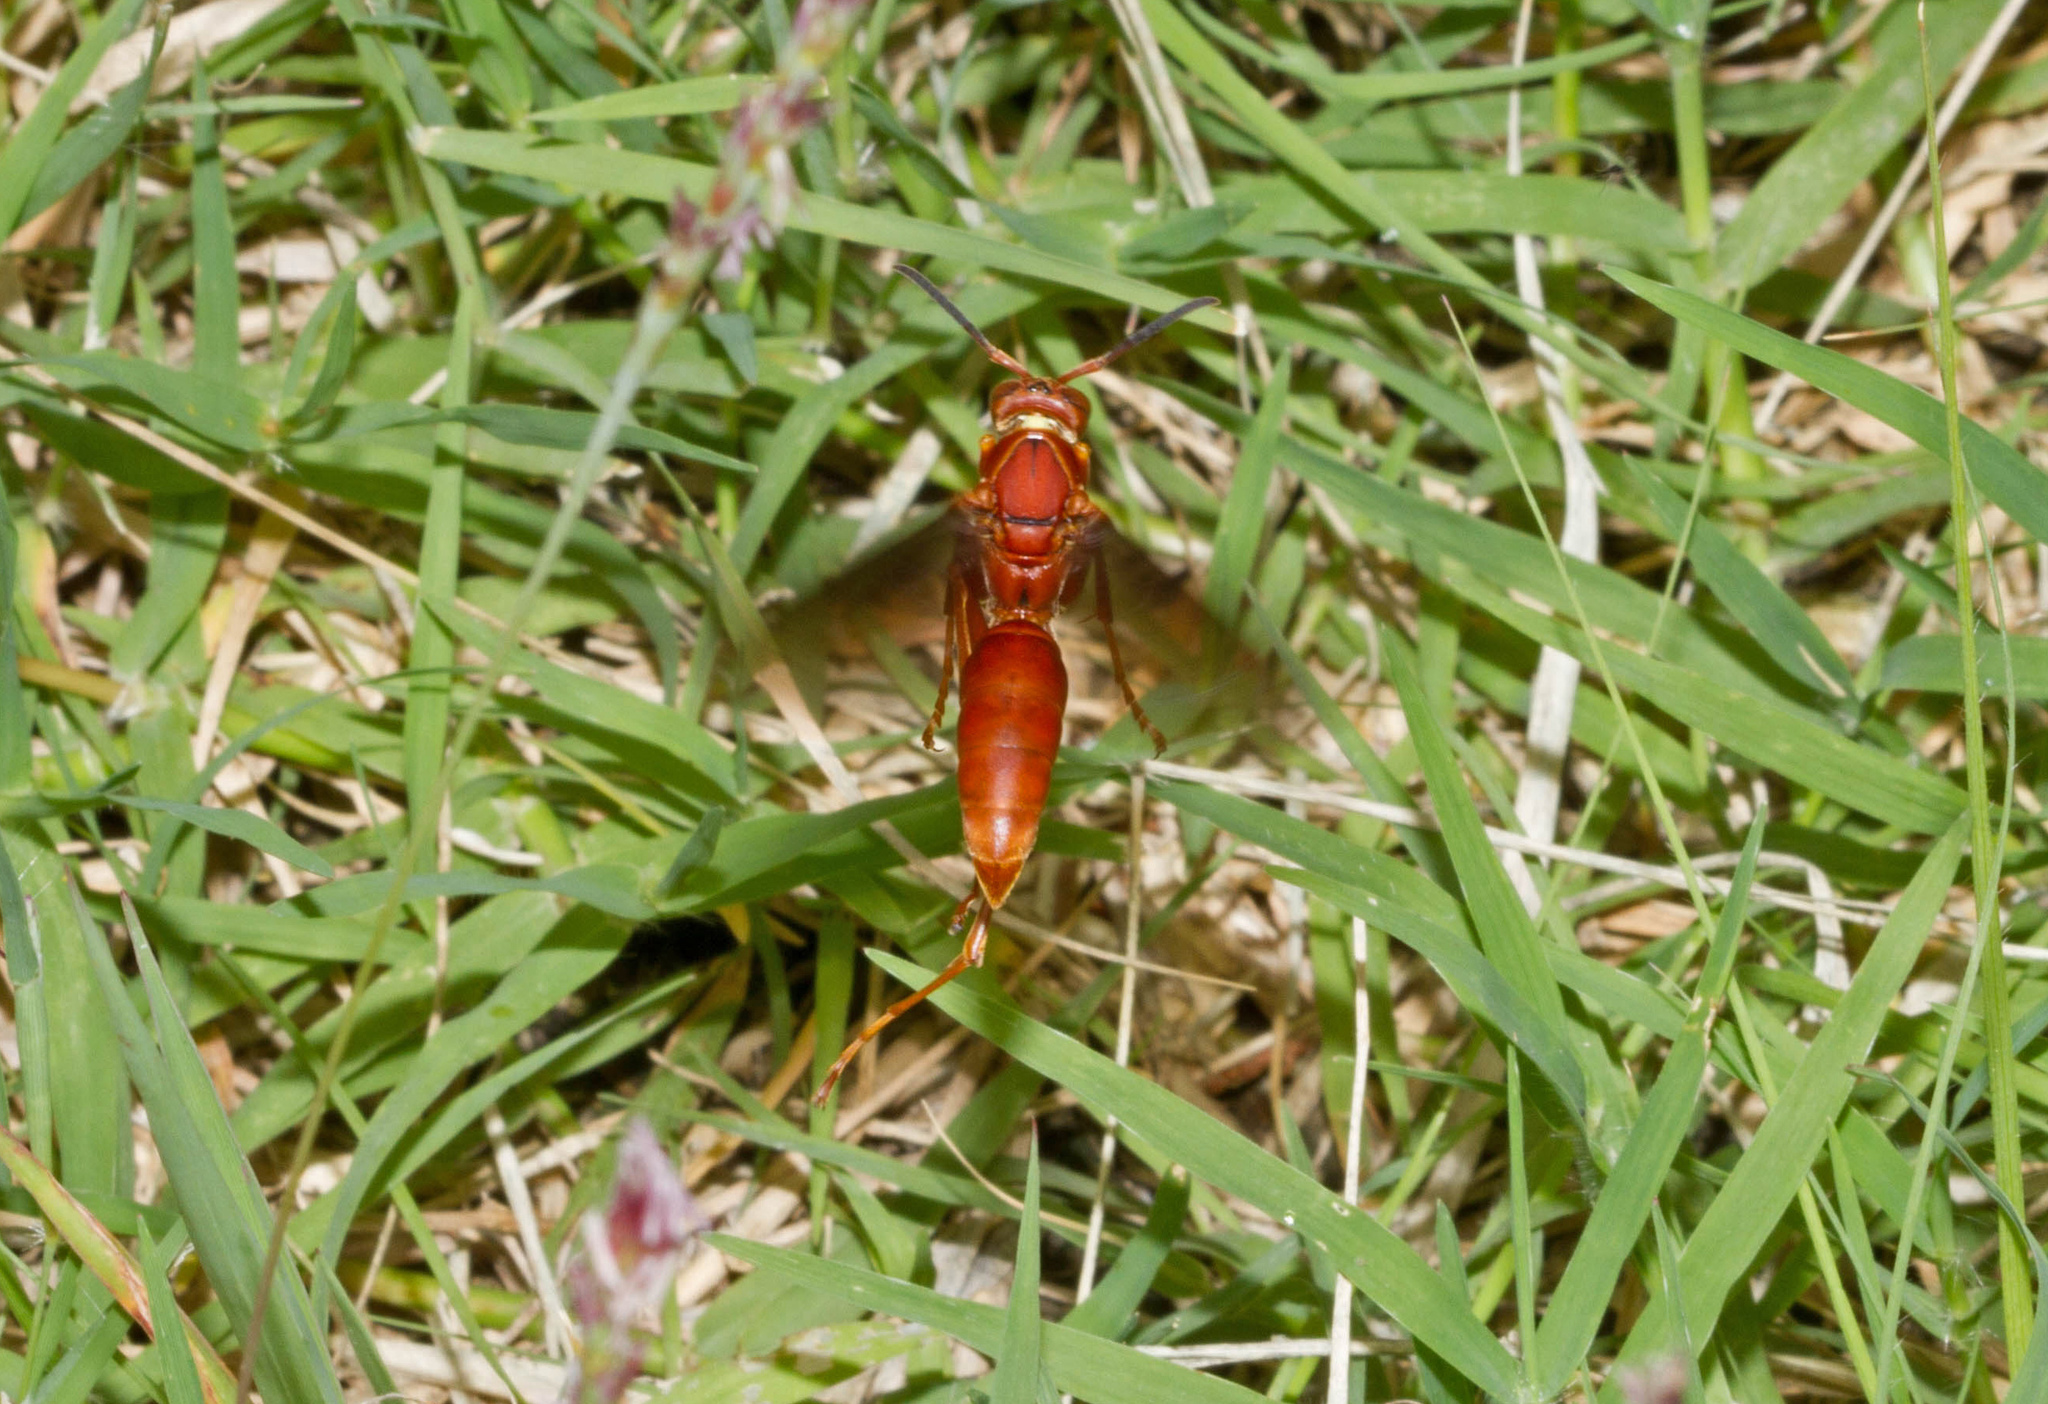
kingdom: Animalia
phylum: Arthropoda
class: Insecta
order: Hymenoptera
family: Vespidae
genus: Fuscopolistes
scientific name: Fuscopolistes
